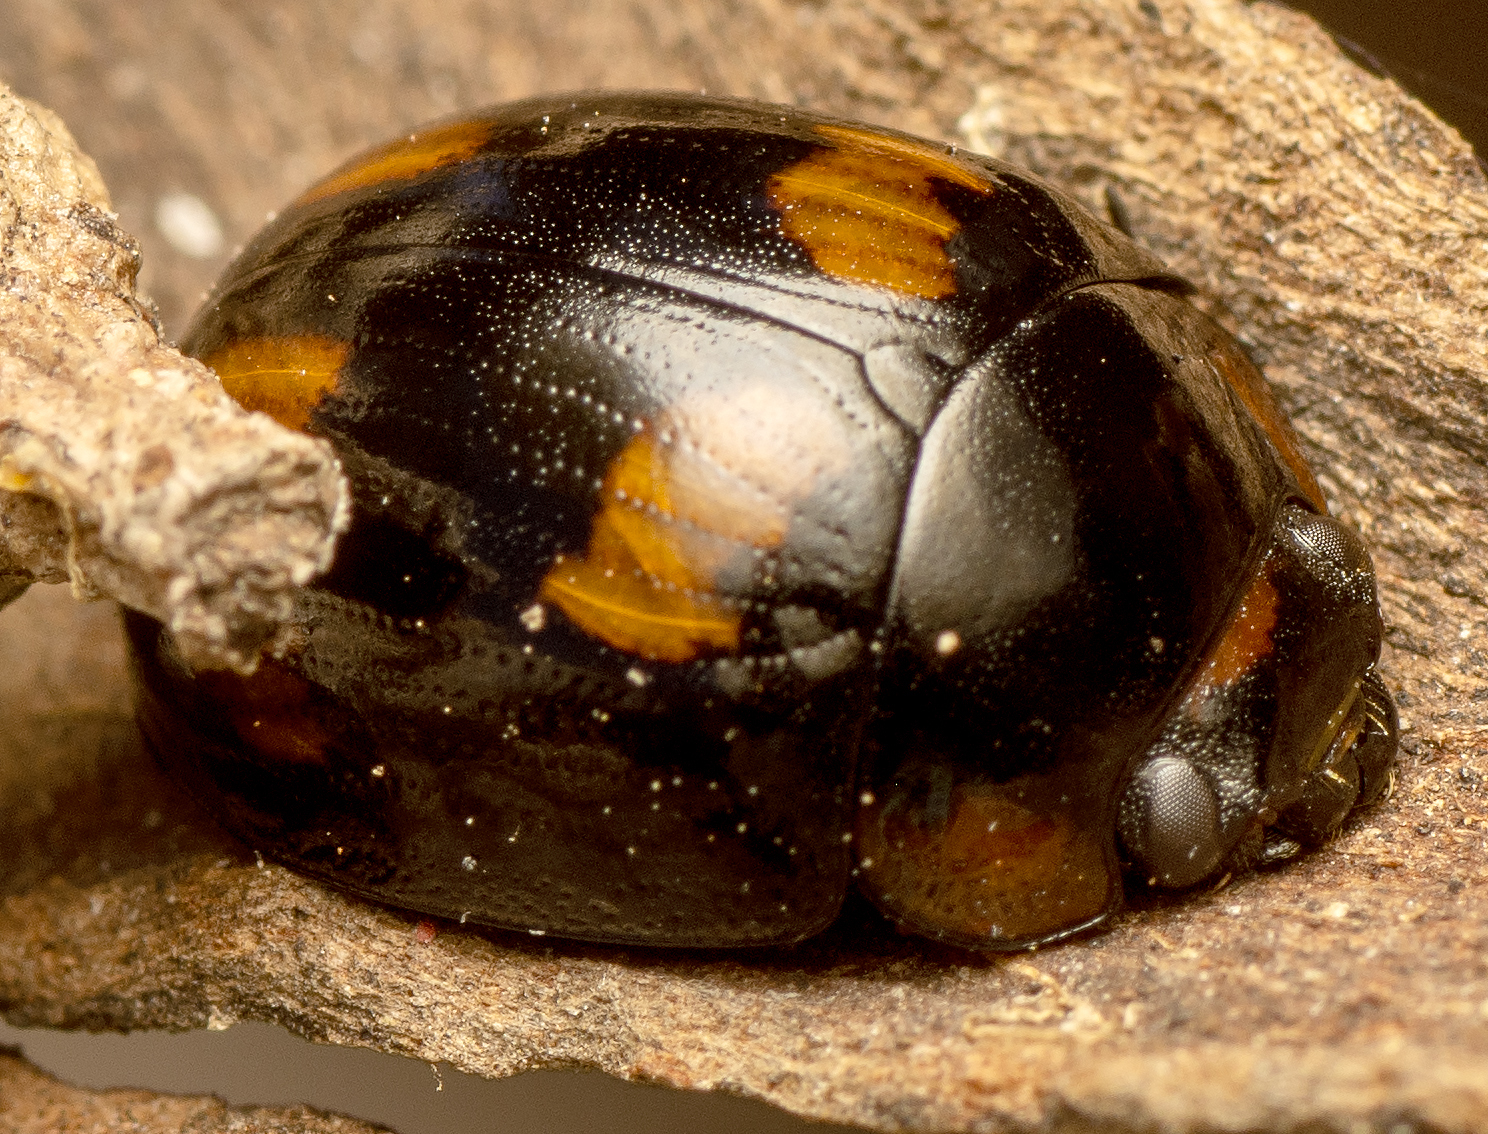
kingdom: Animalia
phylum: Arthropoda
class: Insecta
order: Coleoptera
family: Chrysomelidae
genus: Paropsisterna
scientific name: Paropsisterna
